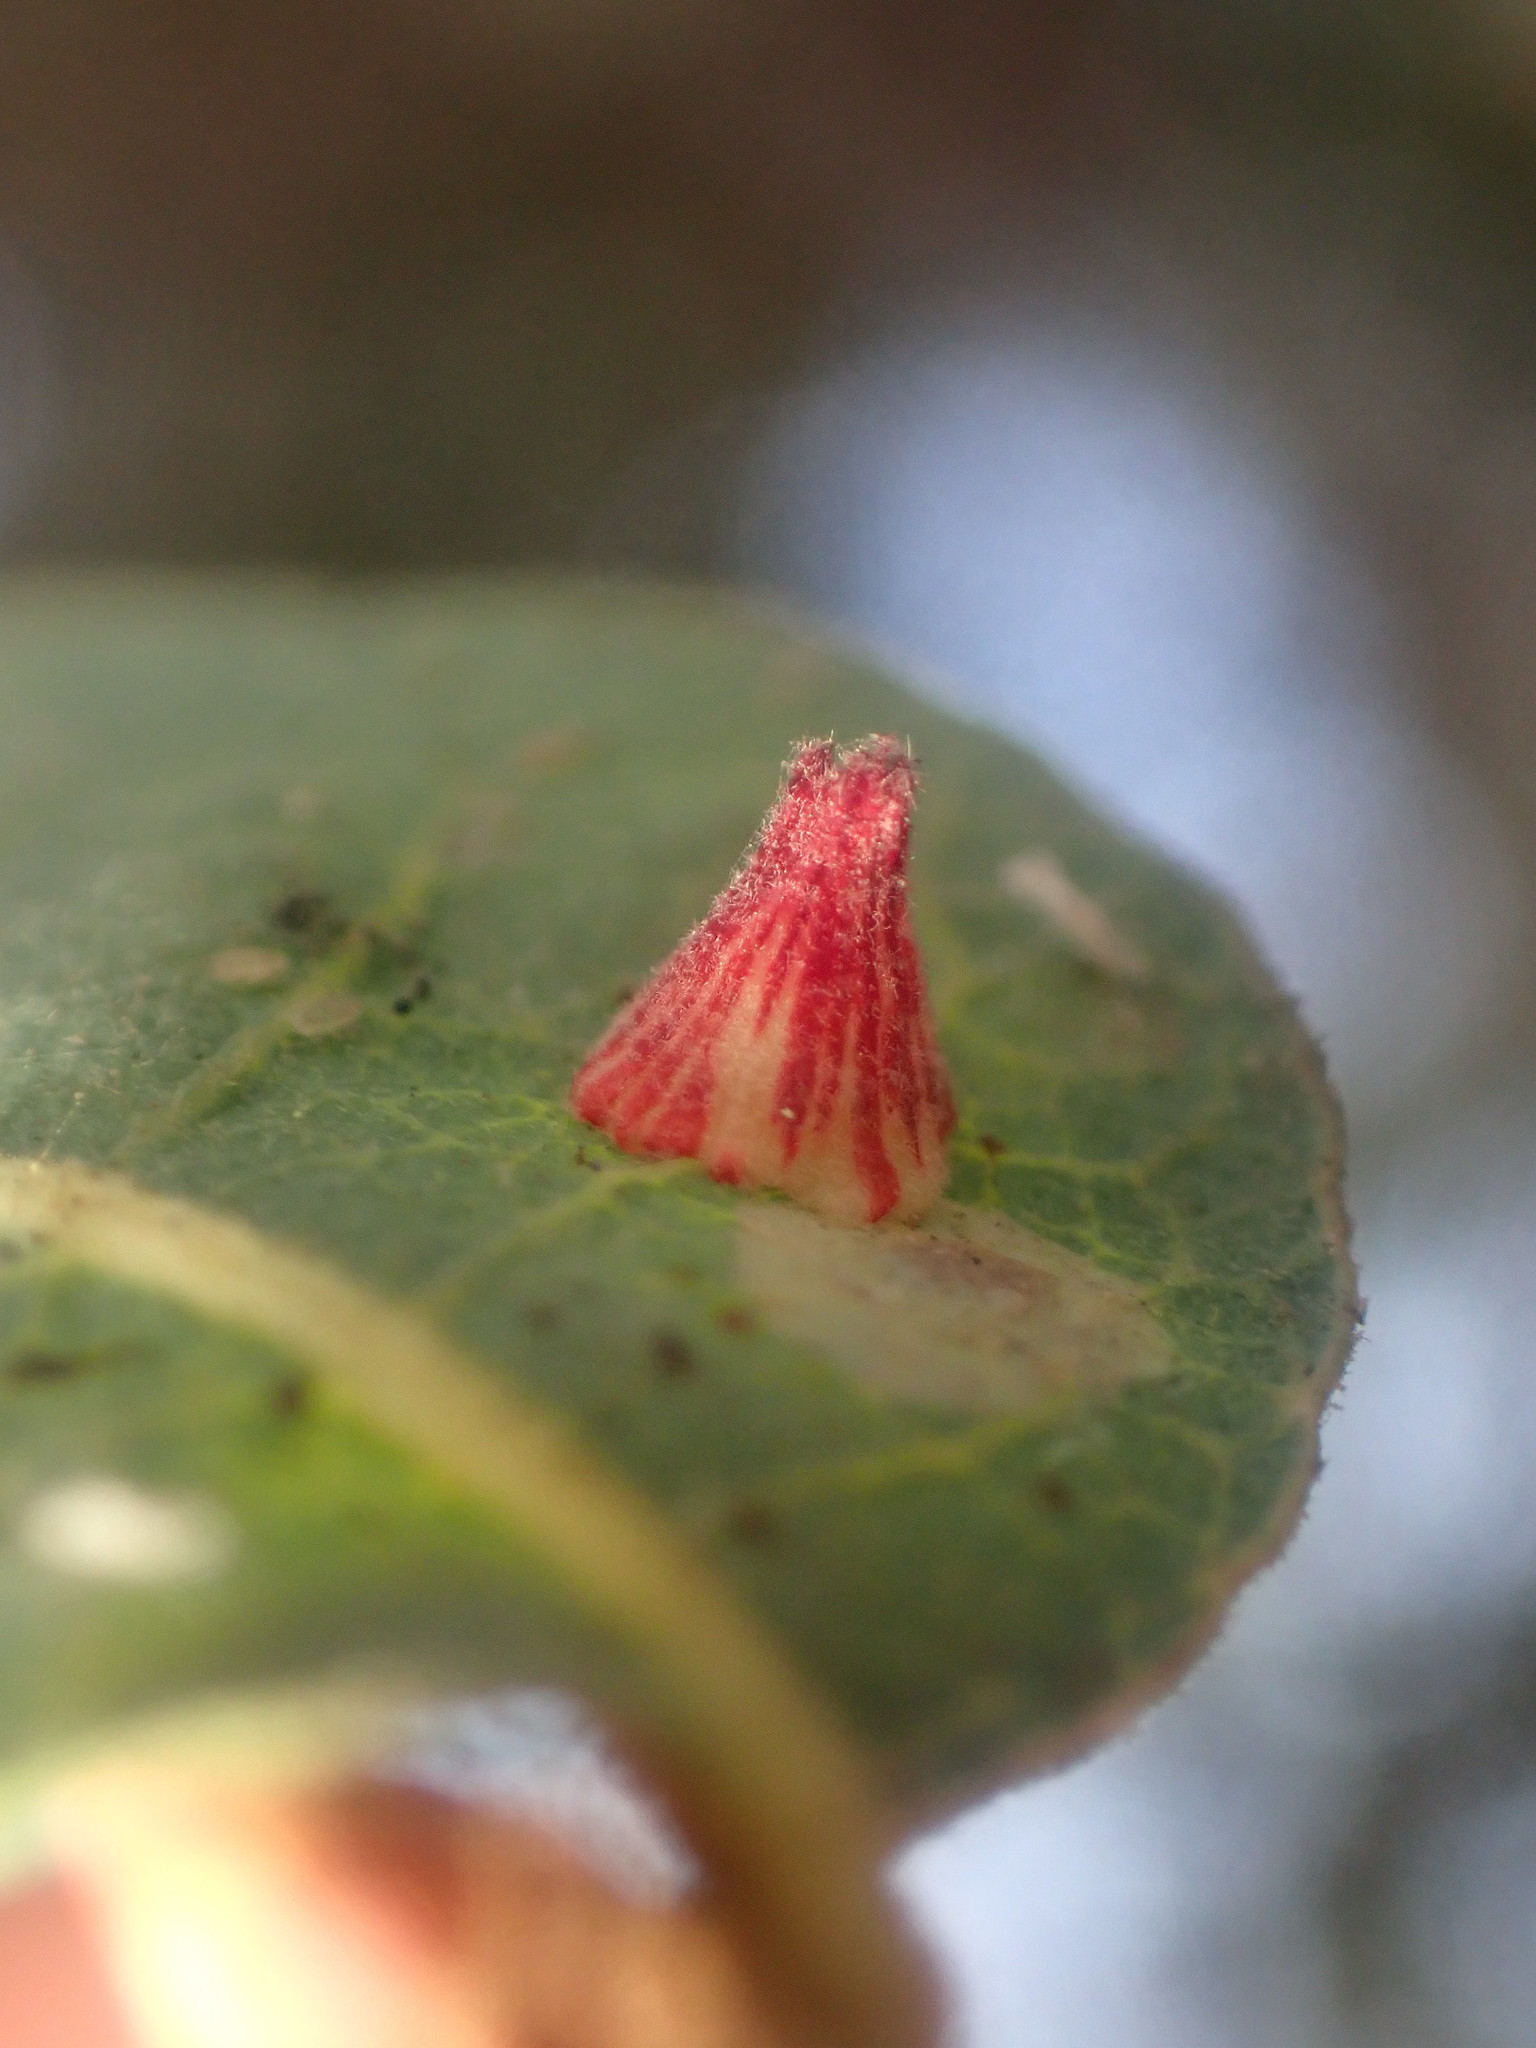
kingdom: Animalia
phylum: Arthropoda
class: Insecta
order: Hymenoptera
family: Cynipidae
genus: Andricus
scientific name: Andricus
